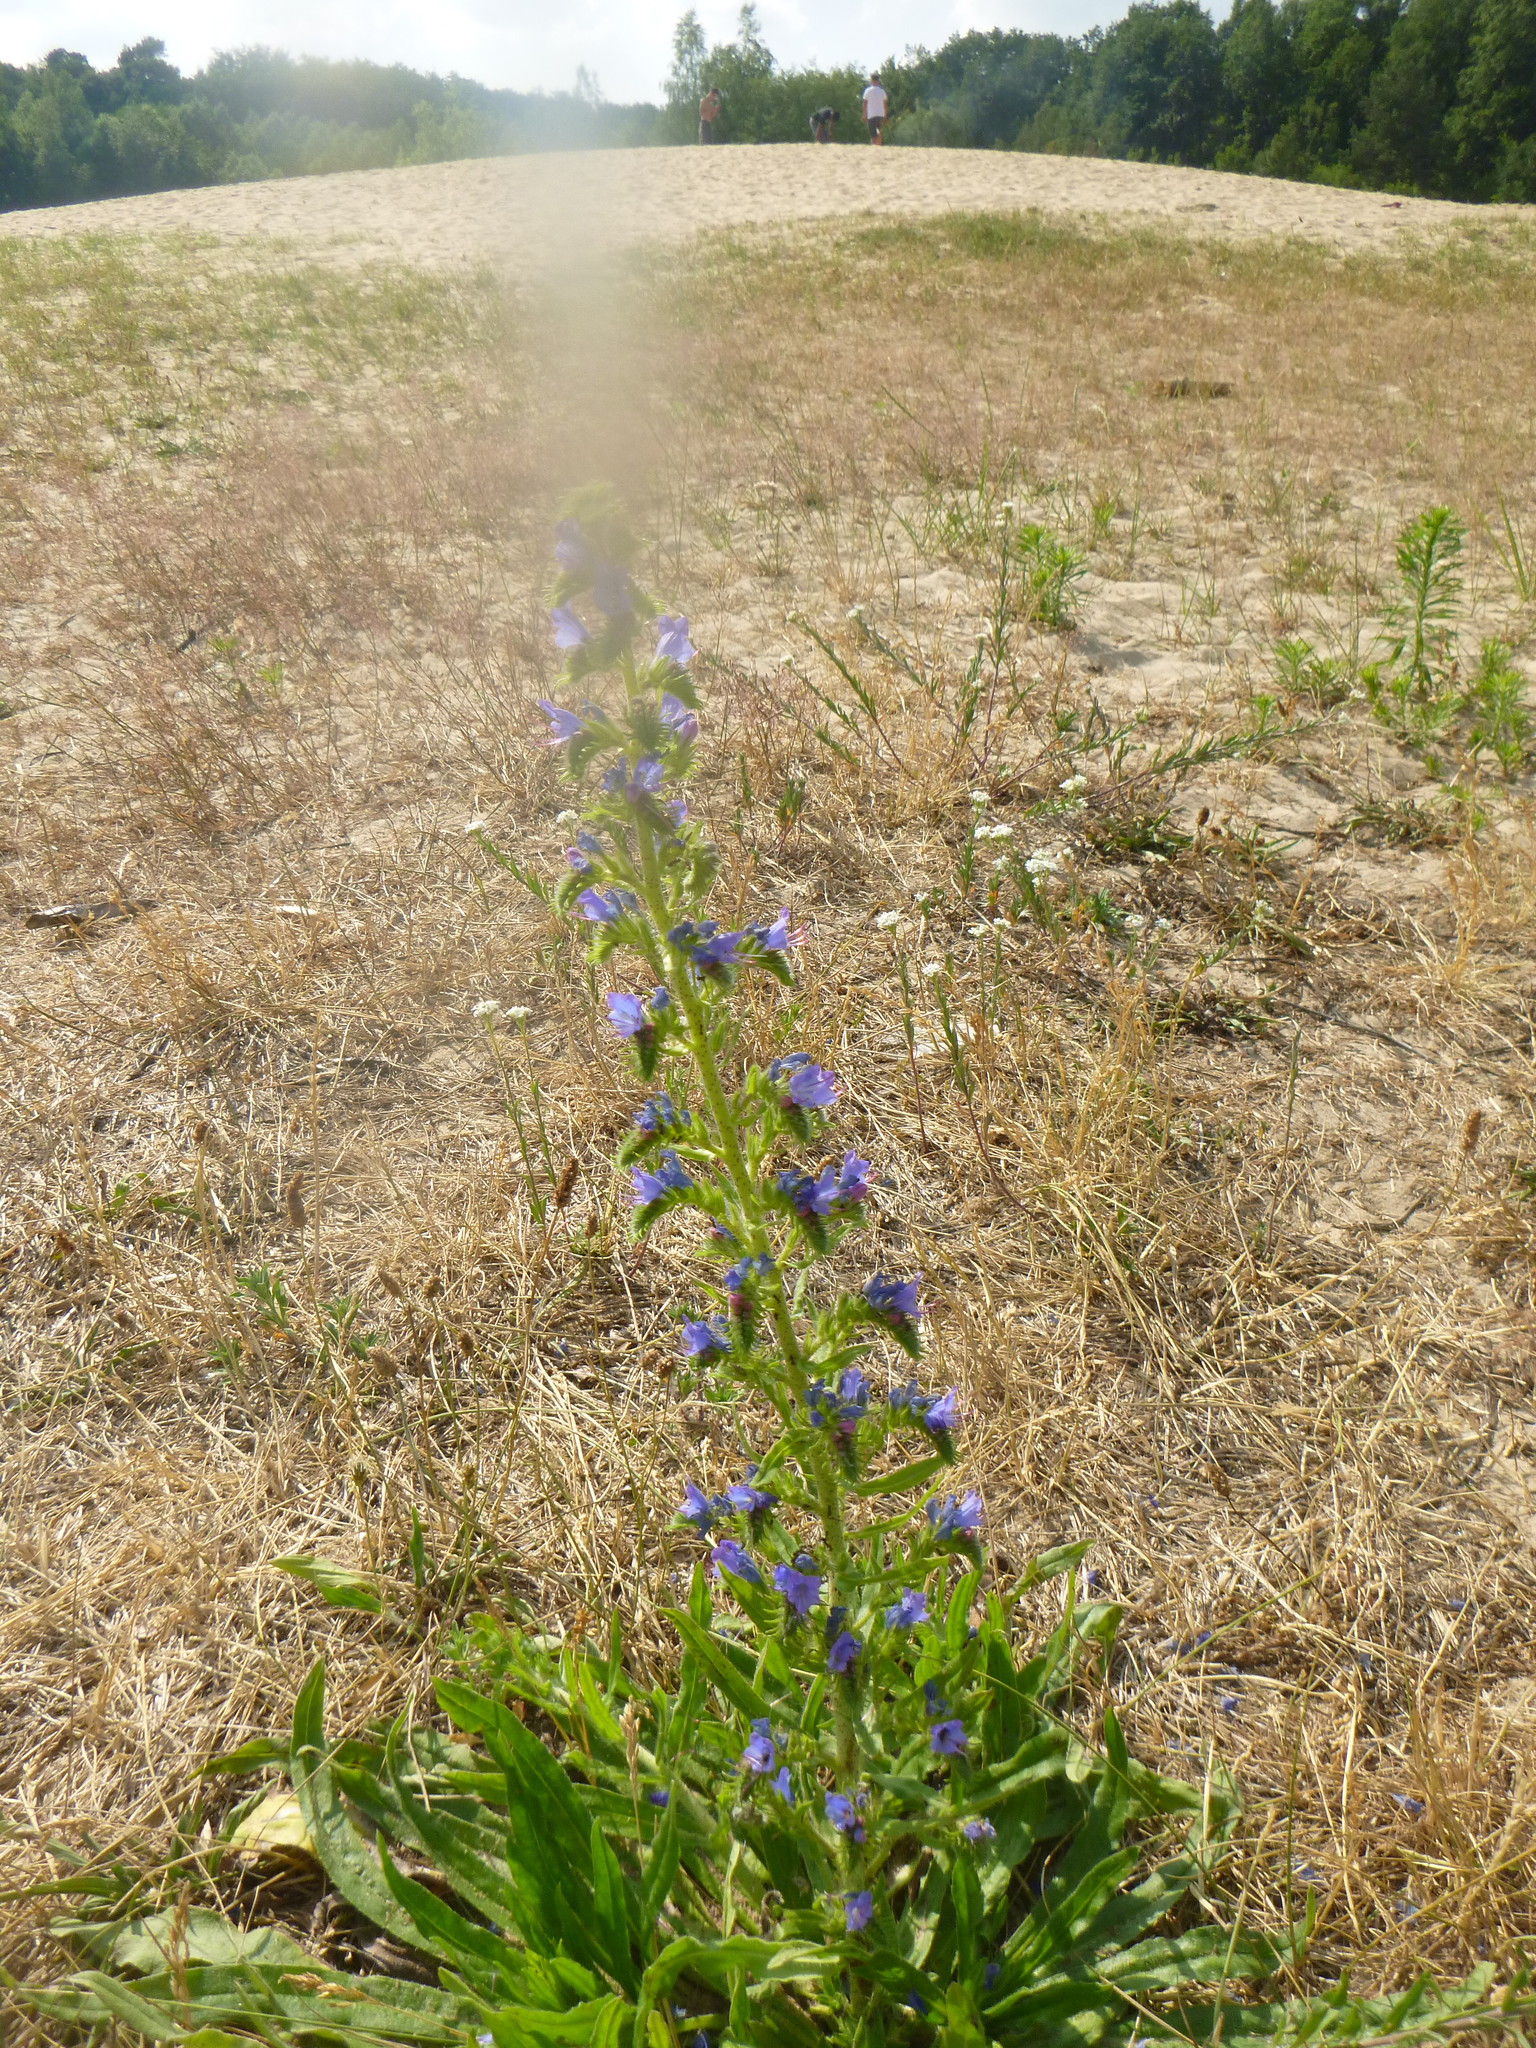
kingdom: Plantae
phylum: Tracheophyta
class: Magnoliopsida
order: Boraginales
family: Boraginaceae
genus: Echium
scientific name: Echium vulgare
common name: Common viper's bugloss
